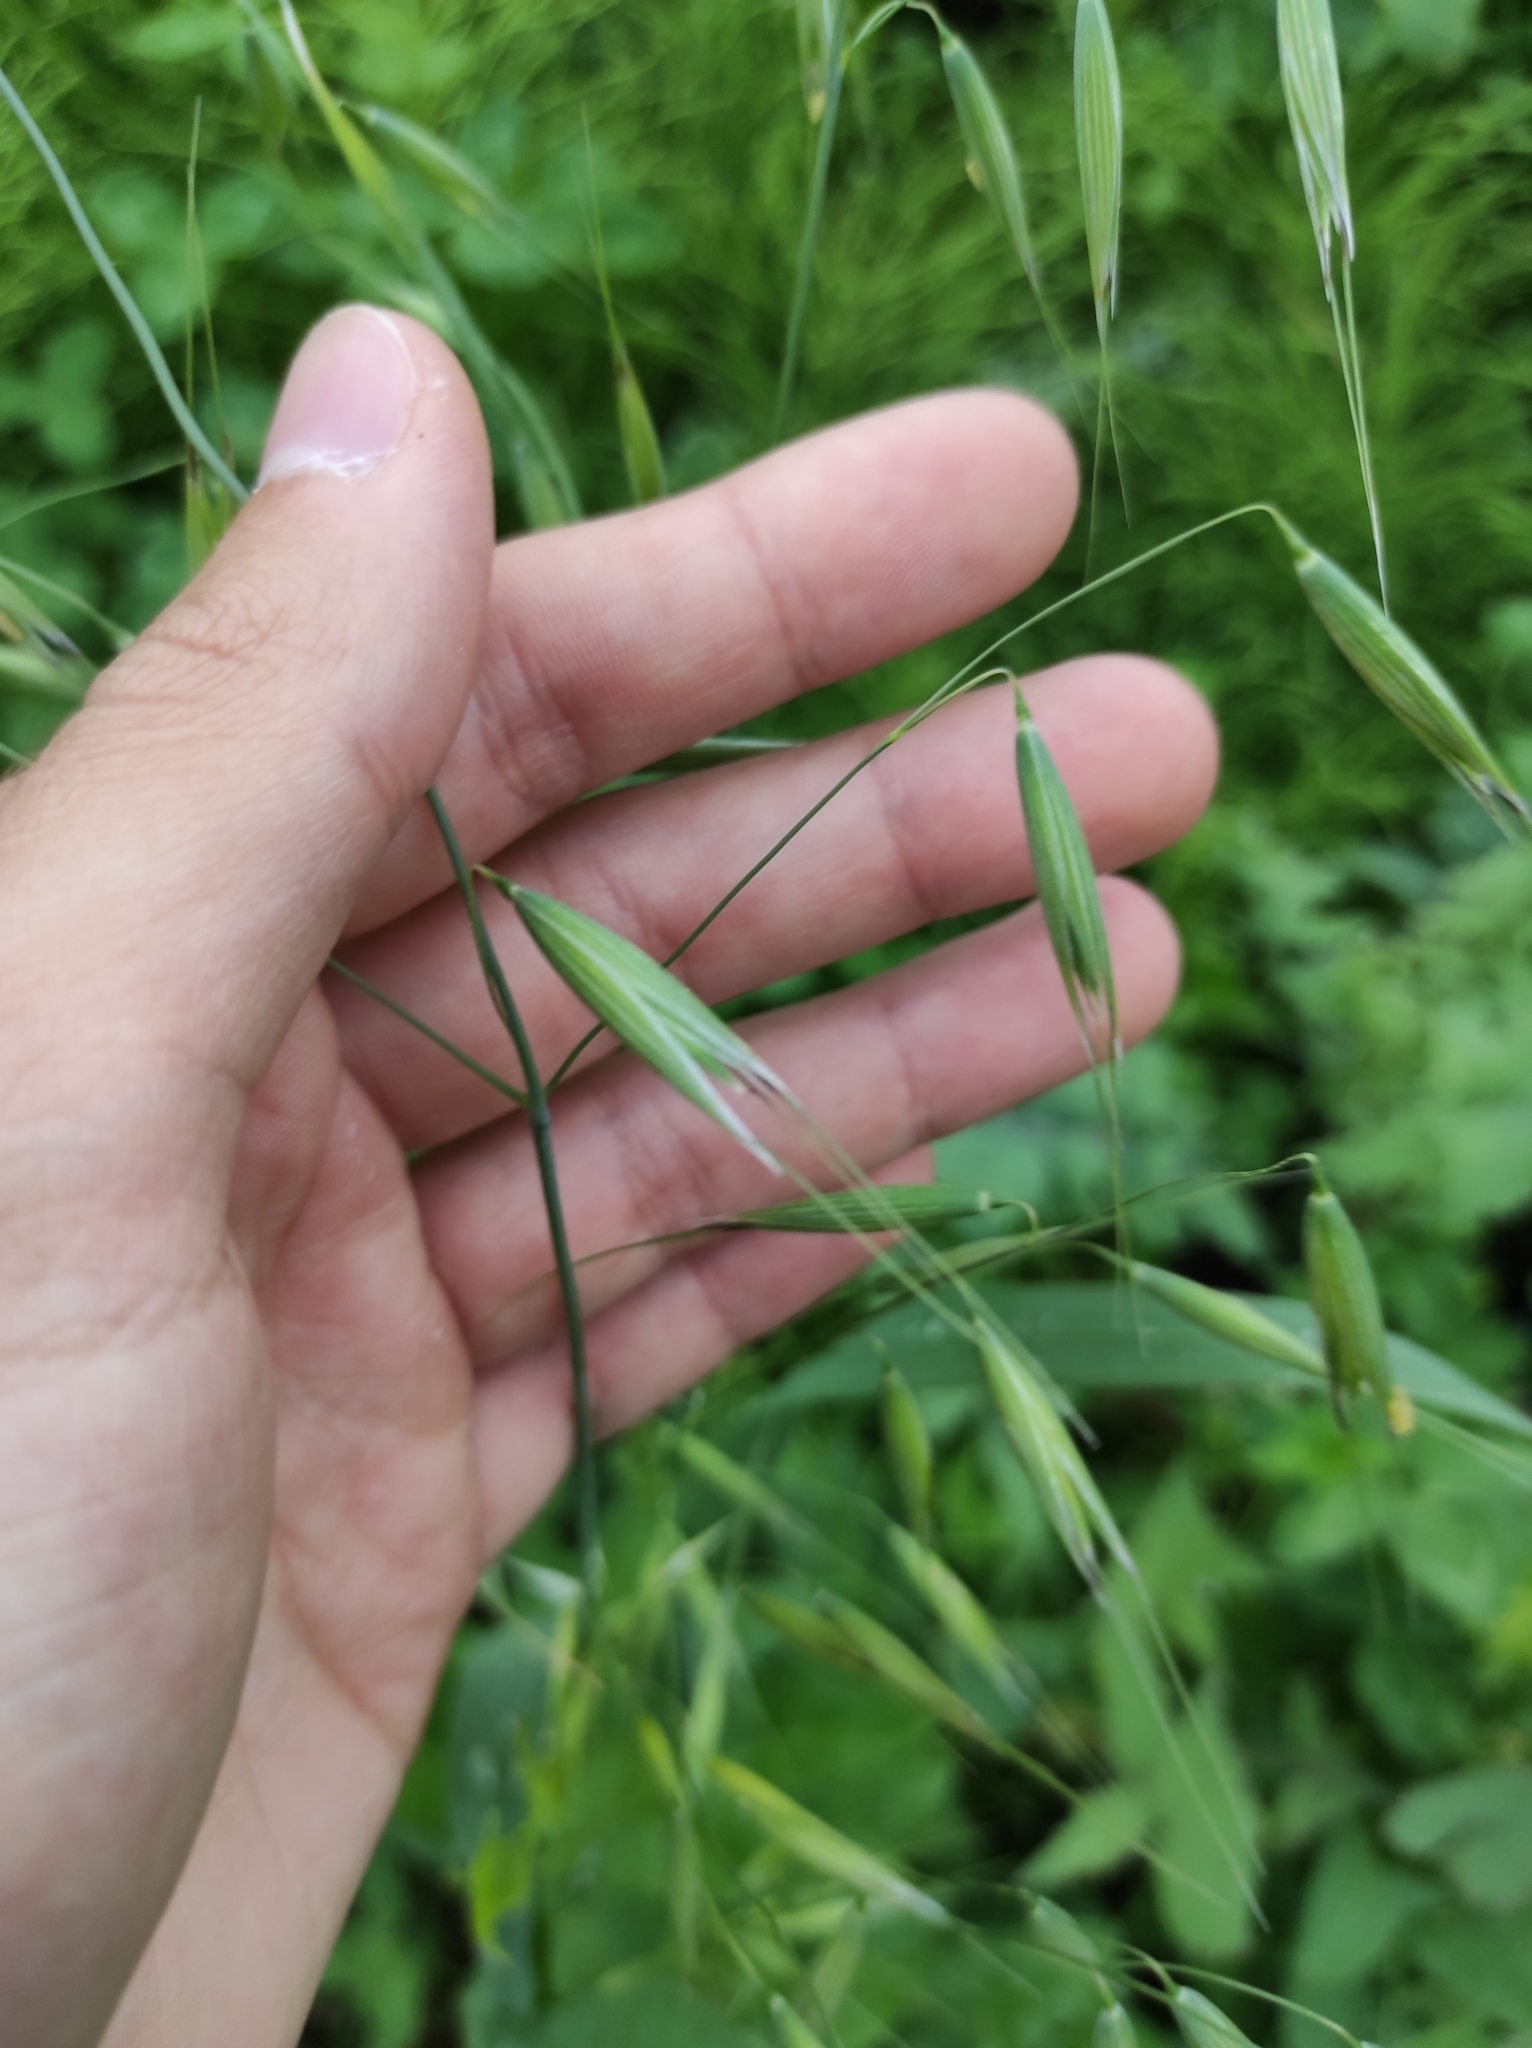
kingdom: Plantae
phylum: Tracheophyta
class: Liliopsida
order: Poales
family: Poaceae
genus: Avena
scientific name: Avena fatua
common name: Wild oat
